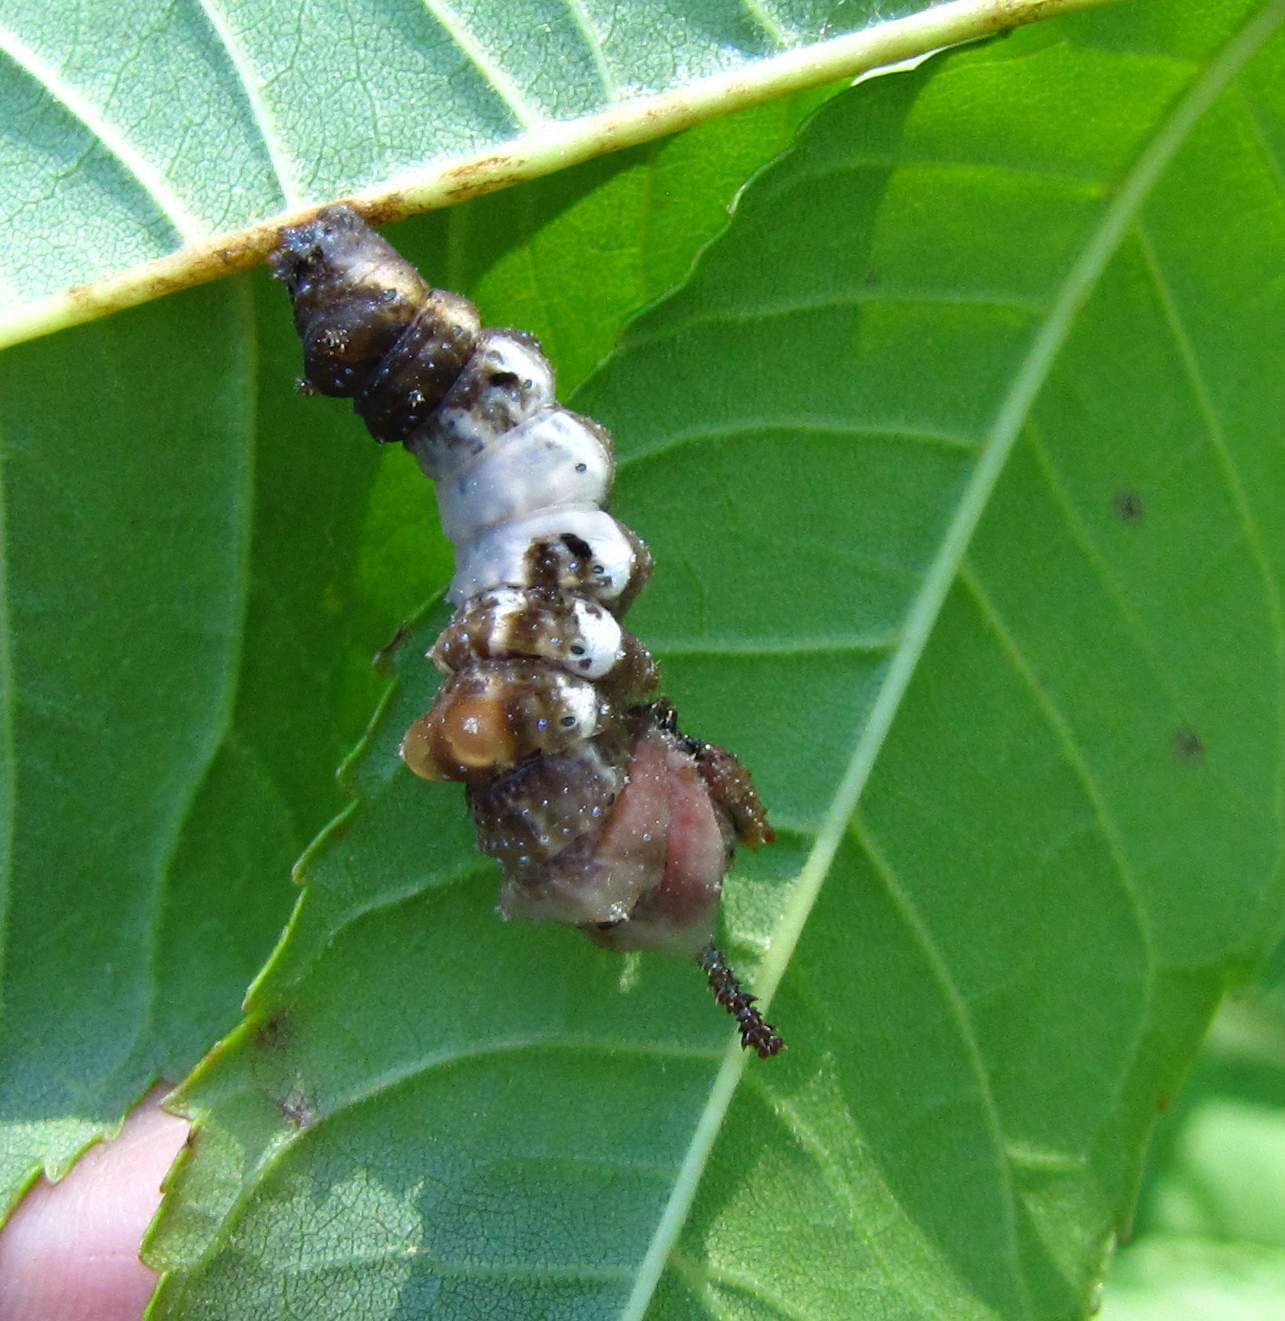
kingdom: Animalia
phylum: Arthropoda
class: Insecta
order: Lepidoptera
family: Nymphalidae
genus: Limenitis
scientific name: Limenitis
